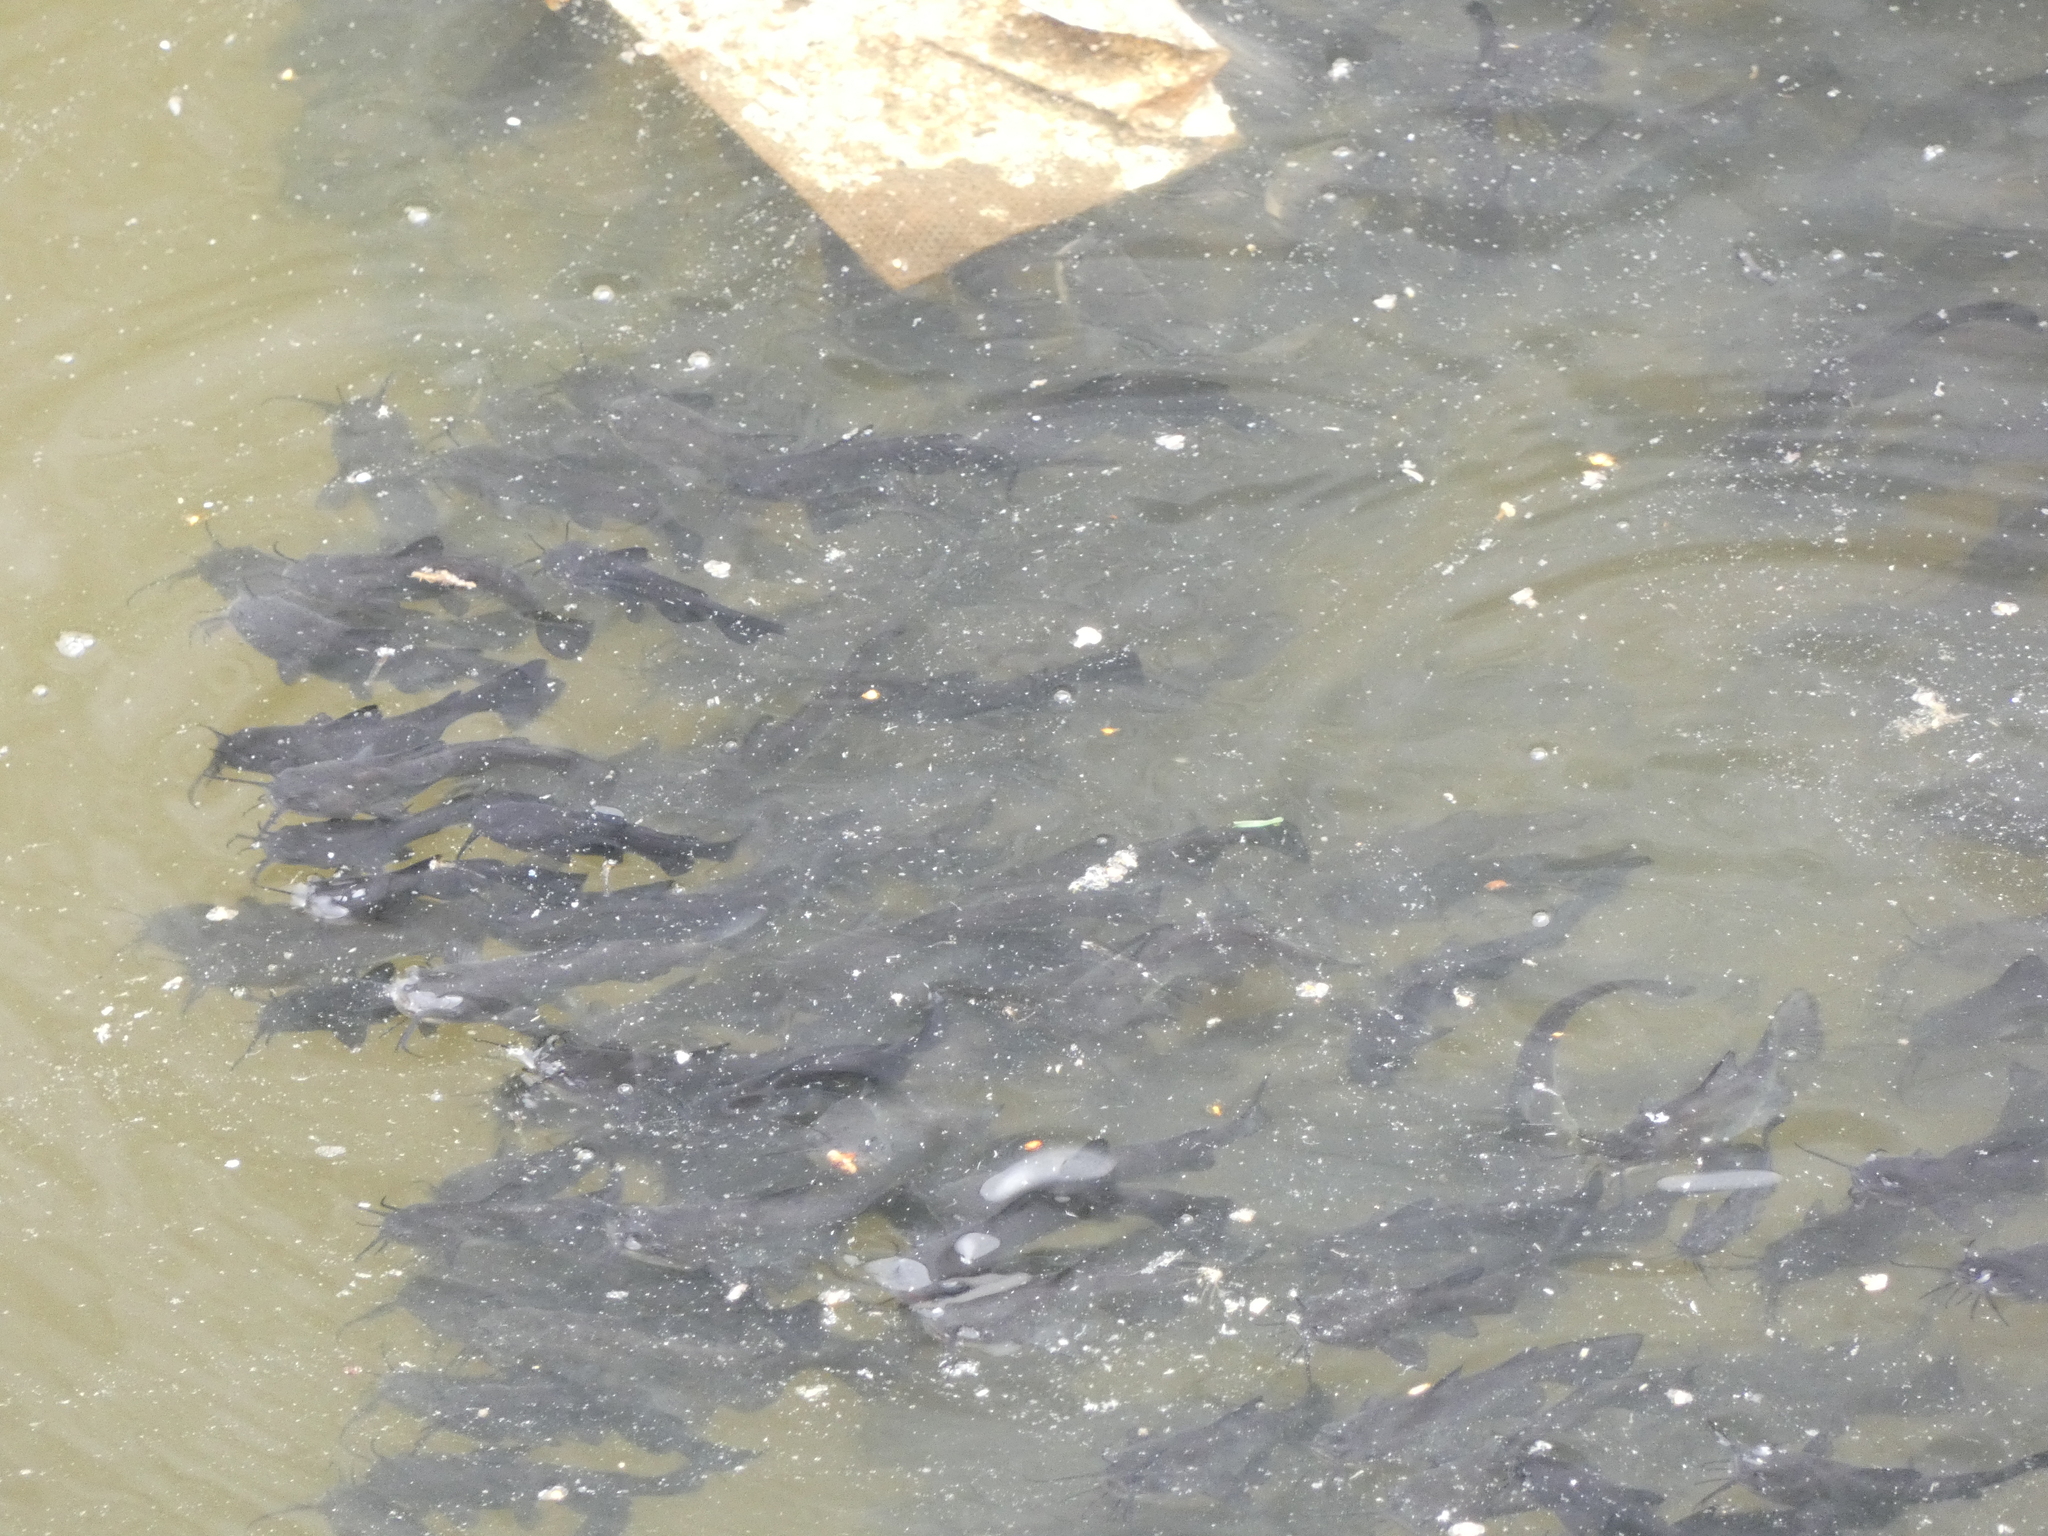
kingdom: Animalia
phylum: Chordata
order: Siluriformes
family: Ictaluridae
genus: Ameiurus
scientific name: Ameiurus melas
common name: Black bullhead
